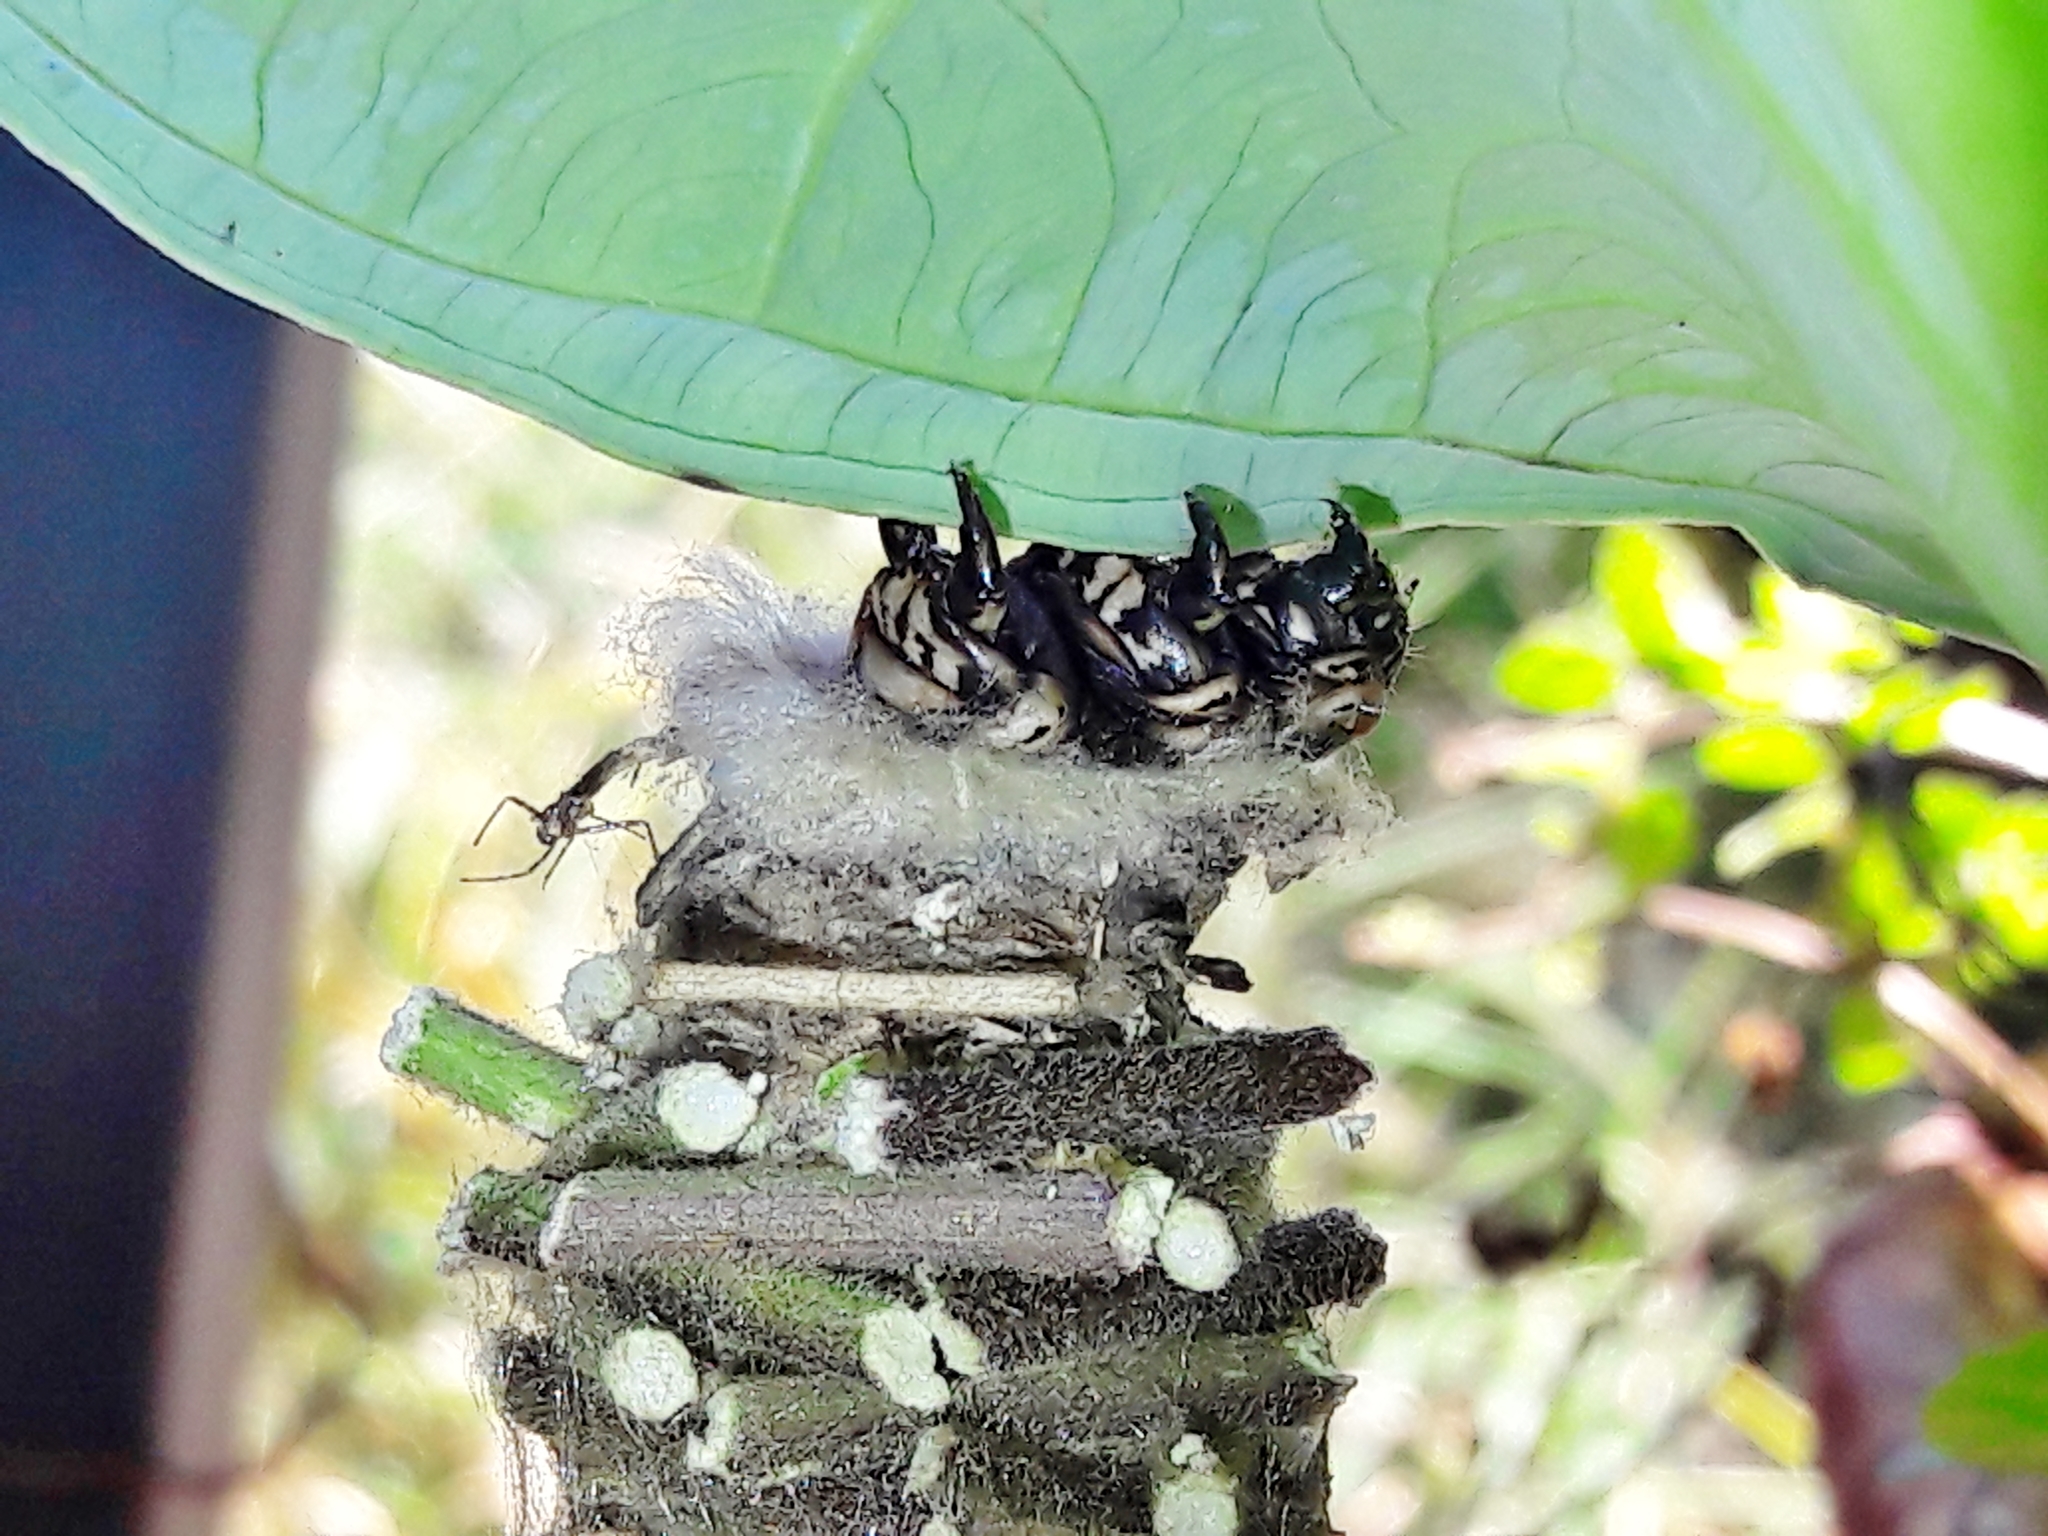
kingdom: Animalia
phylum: Arthropoda
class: Insecta
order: Lepidoptera
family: Psychidae
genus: Oiketicus
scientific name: Oiketicus kirbyi
